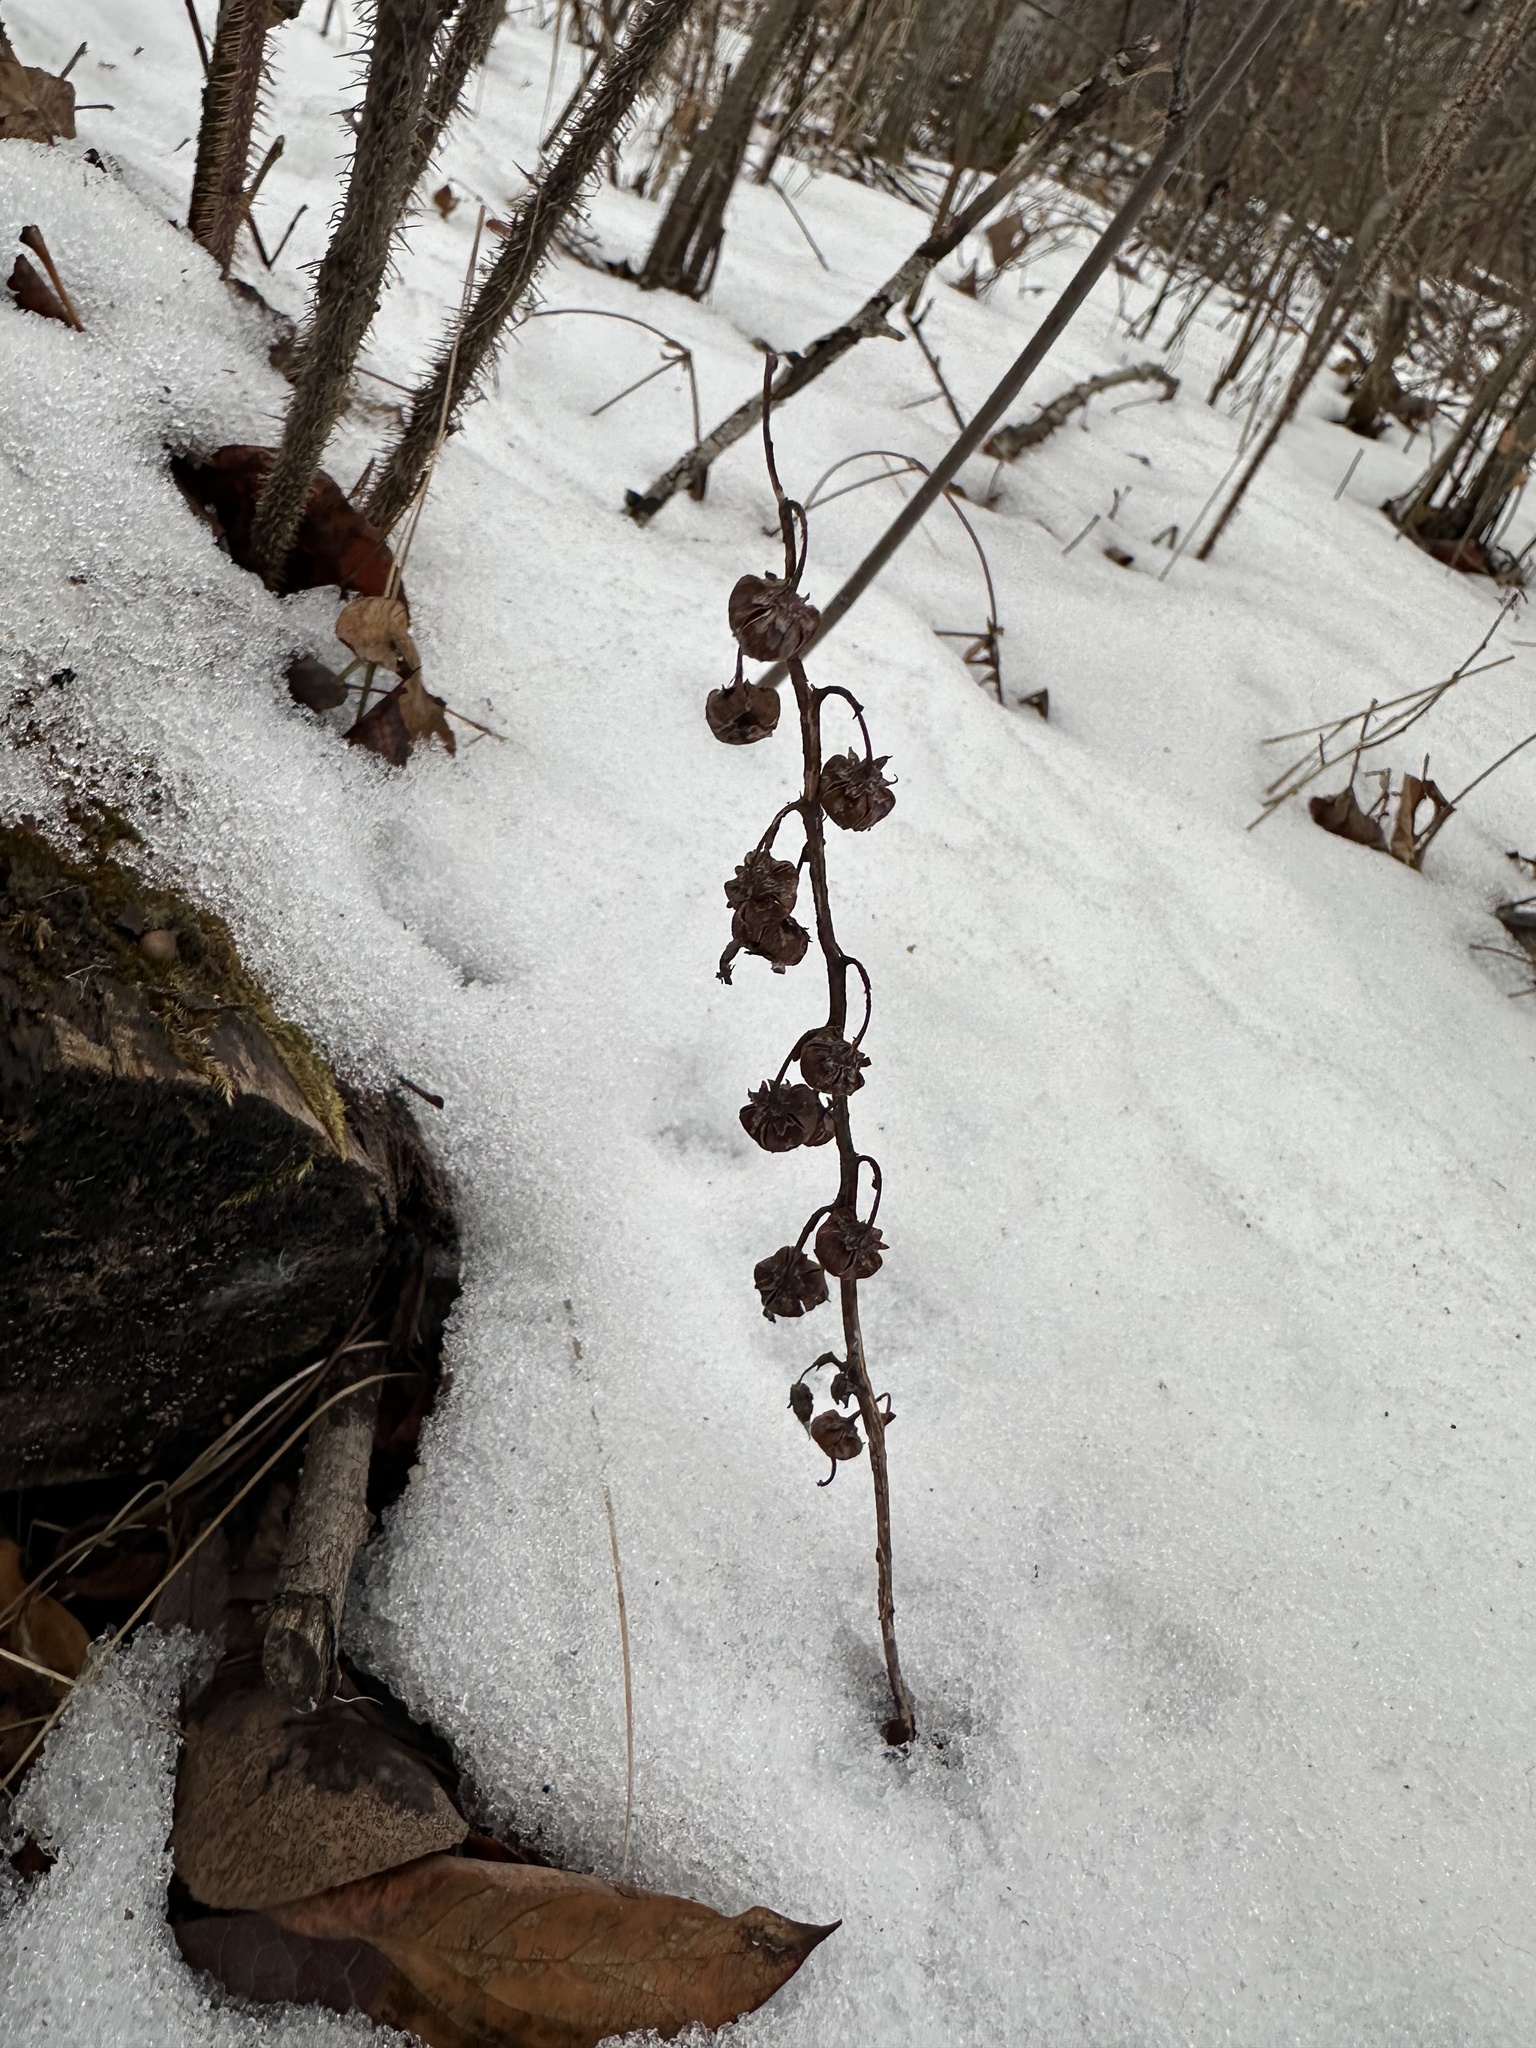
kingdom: Plantae
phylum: Tracheophyta
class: Magnoliopsida
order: Ericales
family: Ericaceae
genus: Pyrola
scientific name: Pyrola asarifolia
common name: Bog wintergreen
